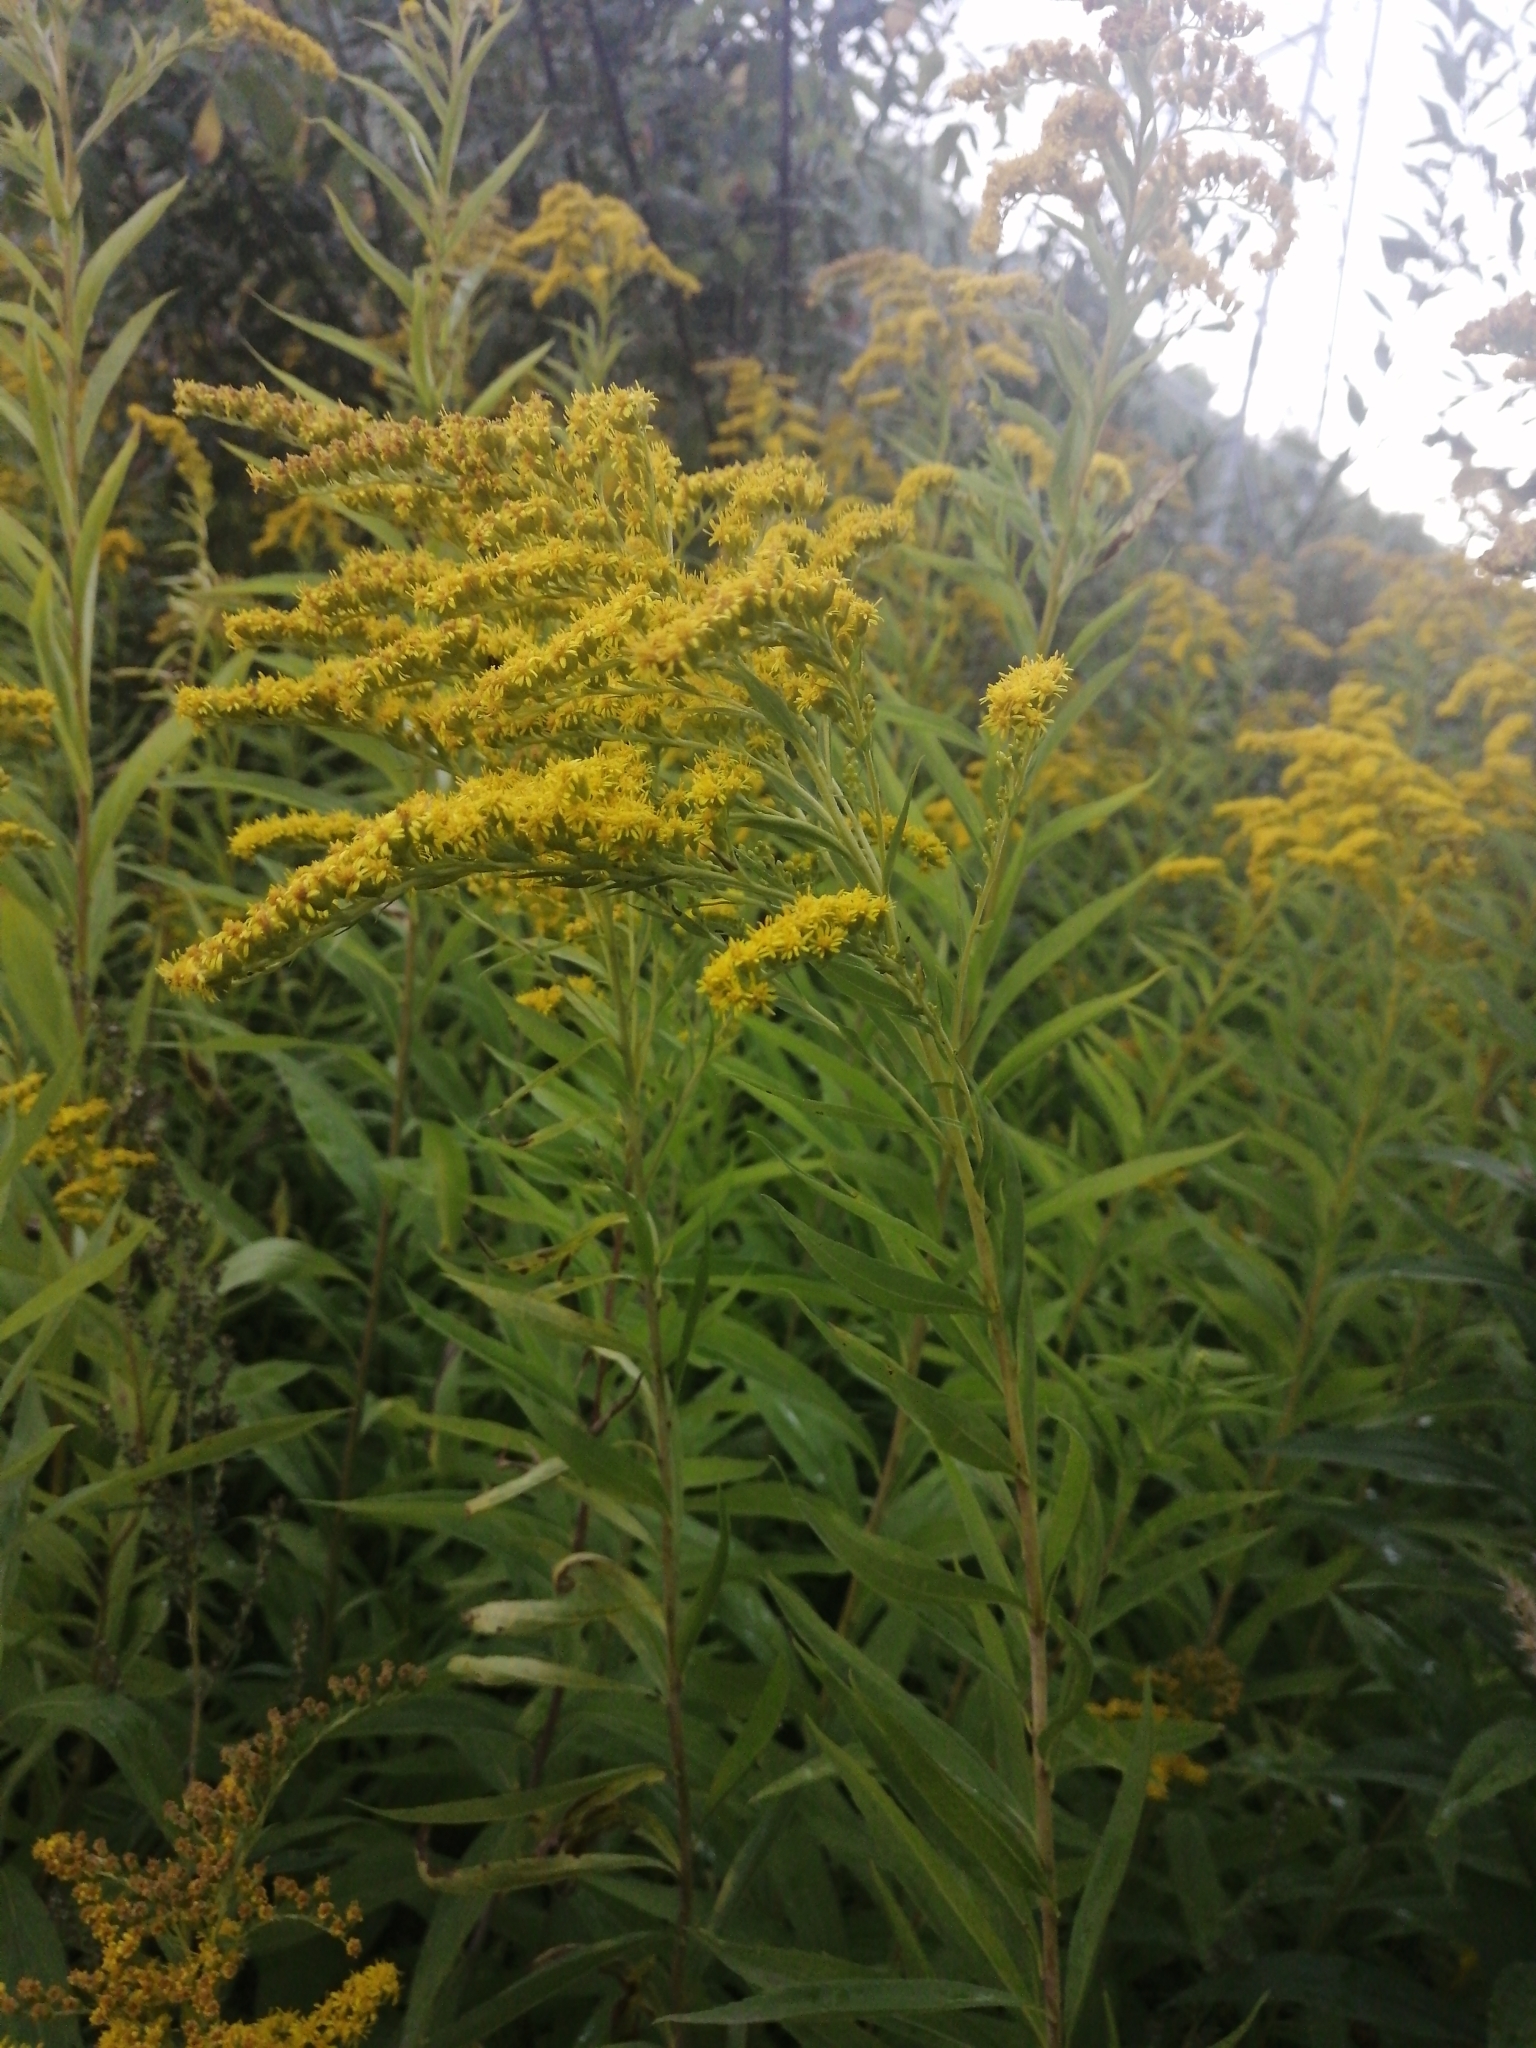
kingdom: Plantae
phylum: Tracheophyta
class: Magnoliopsida
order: Asterales
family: Asteraceae
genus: Solidago
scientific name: Solidago gigantea
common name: Giant goldenrod
